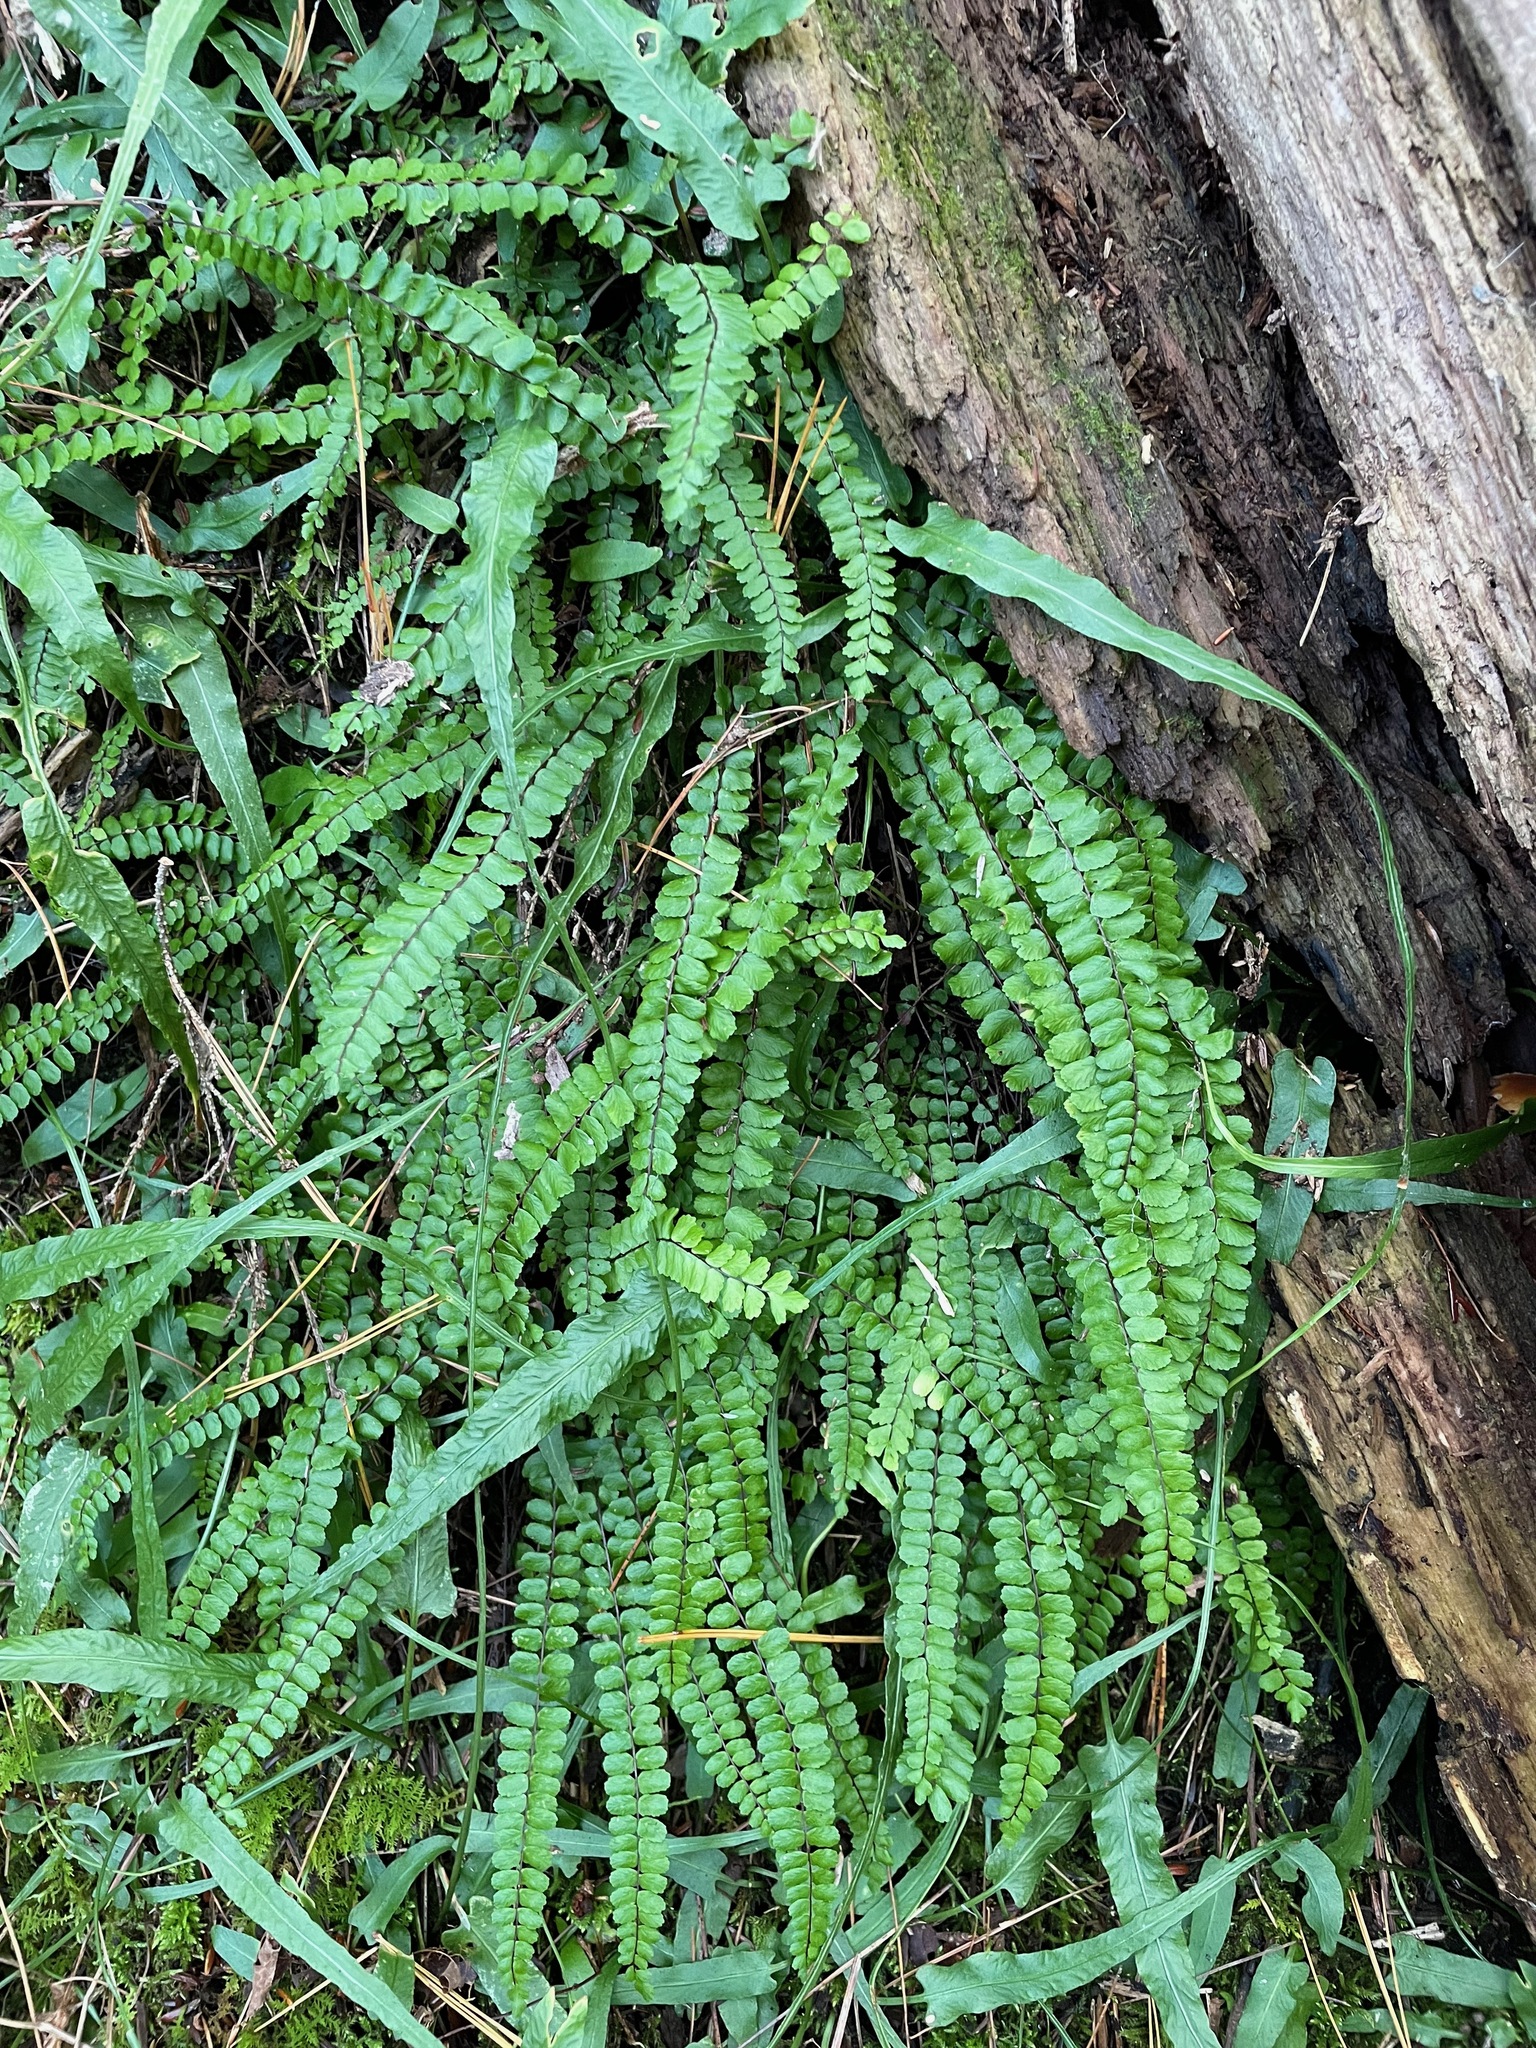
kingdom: Plantae
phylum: Tracheophyta
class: Polypodiopsida
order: Polypodiales
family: Aspleniaceae
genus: Asplenium
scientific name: Asplenium trichomanes
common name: Maidenhair spleenwort
